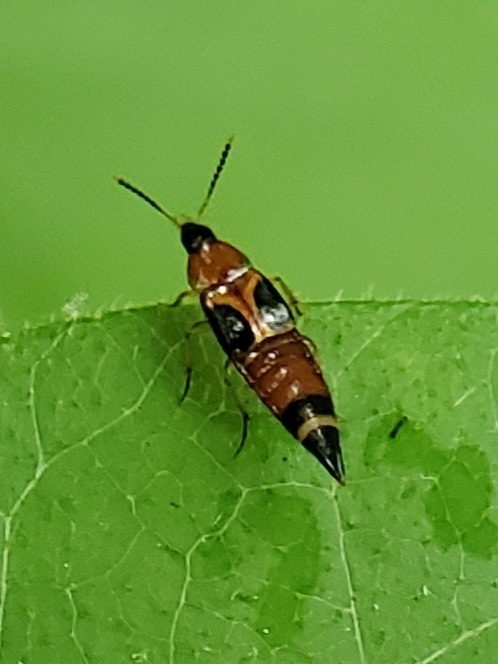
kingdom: Animalia
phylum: Arthropoda
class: Insecta
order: Coleoptera
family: Staphylinidae
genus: Lordithon
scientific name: Lordithon cinctus
